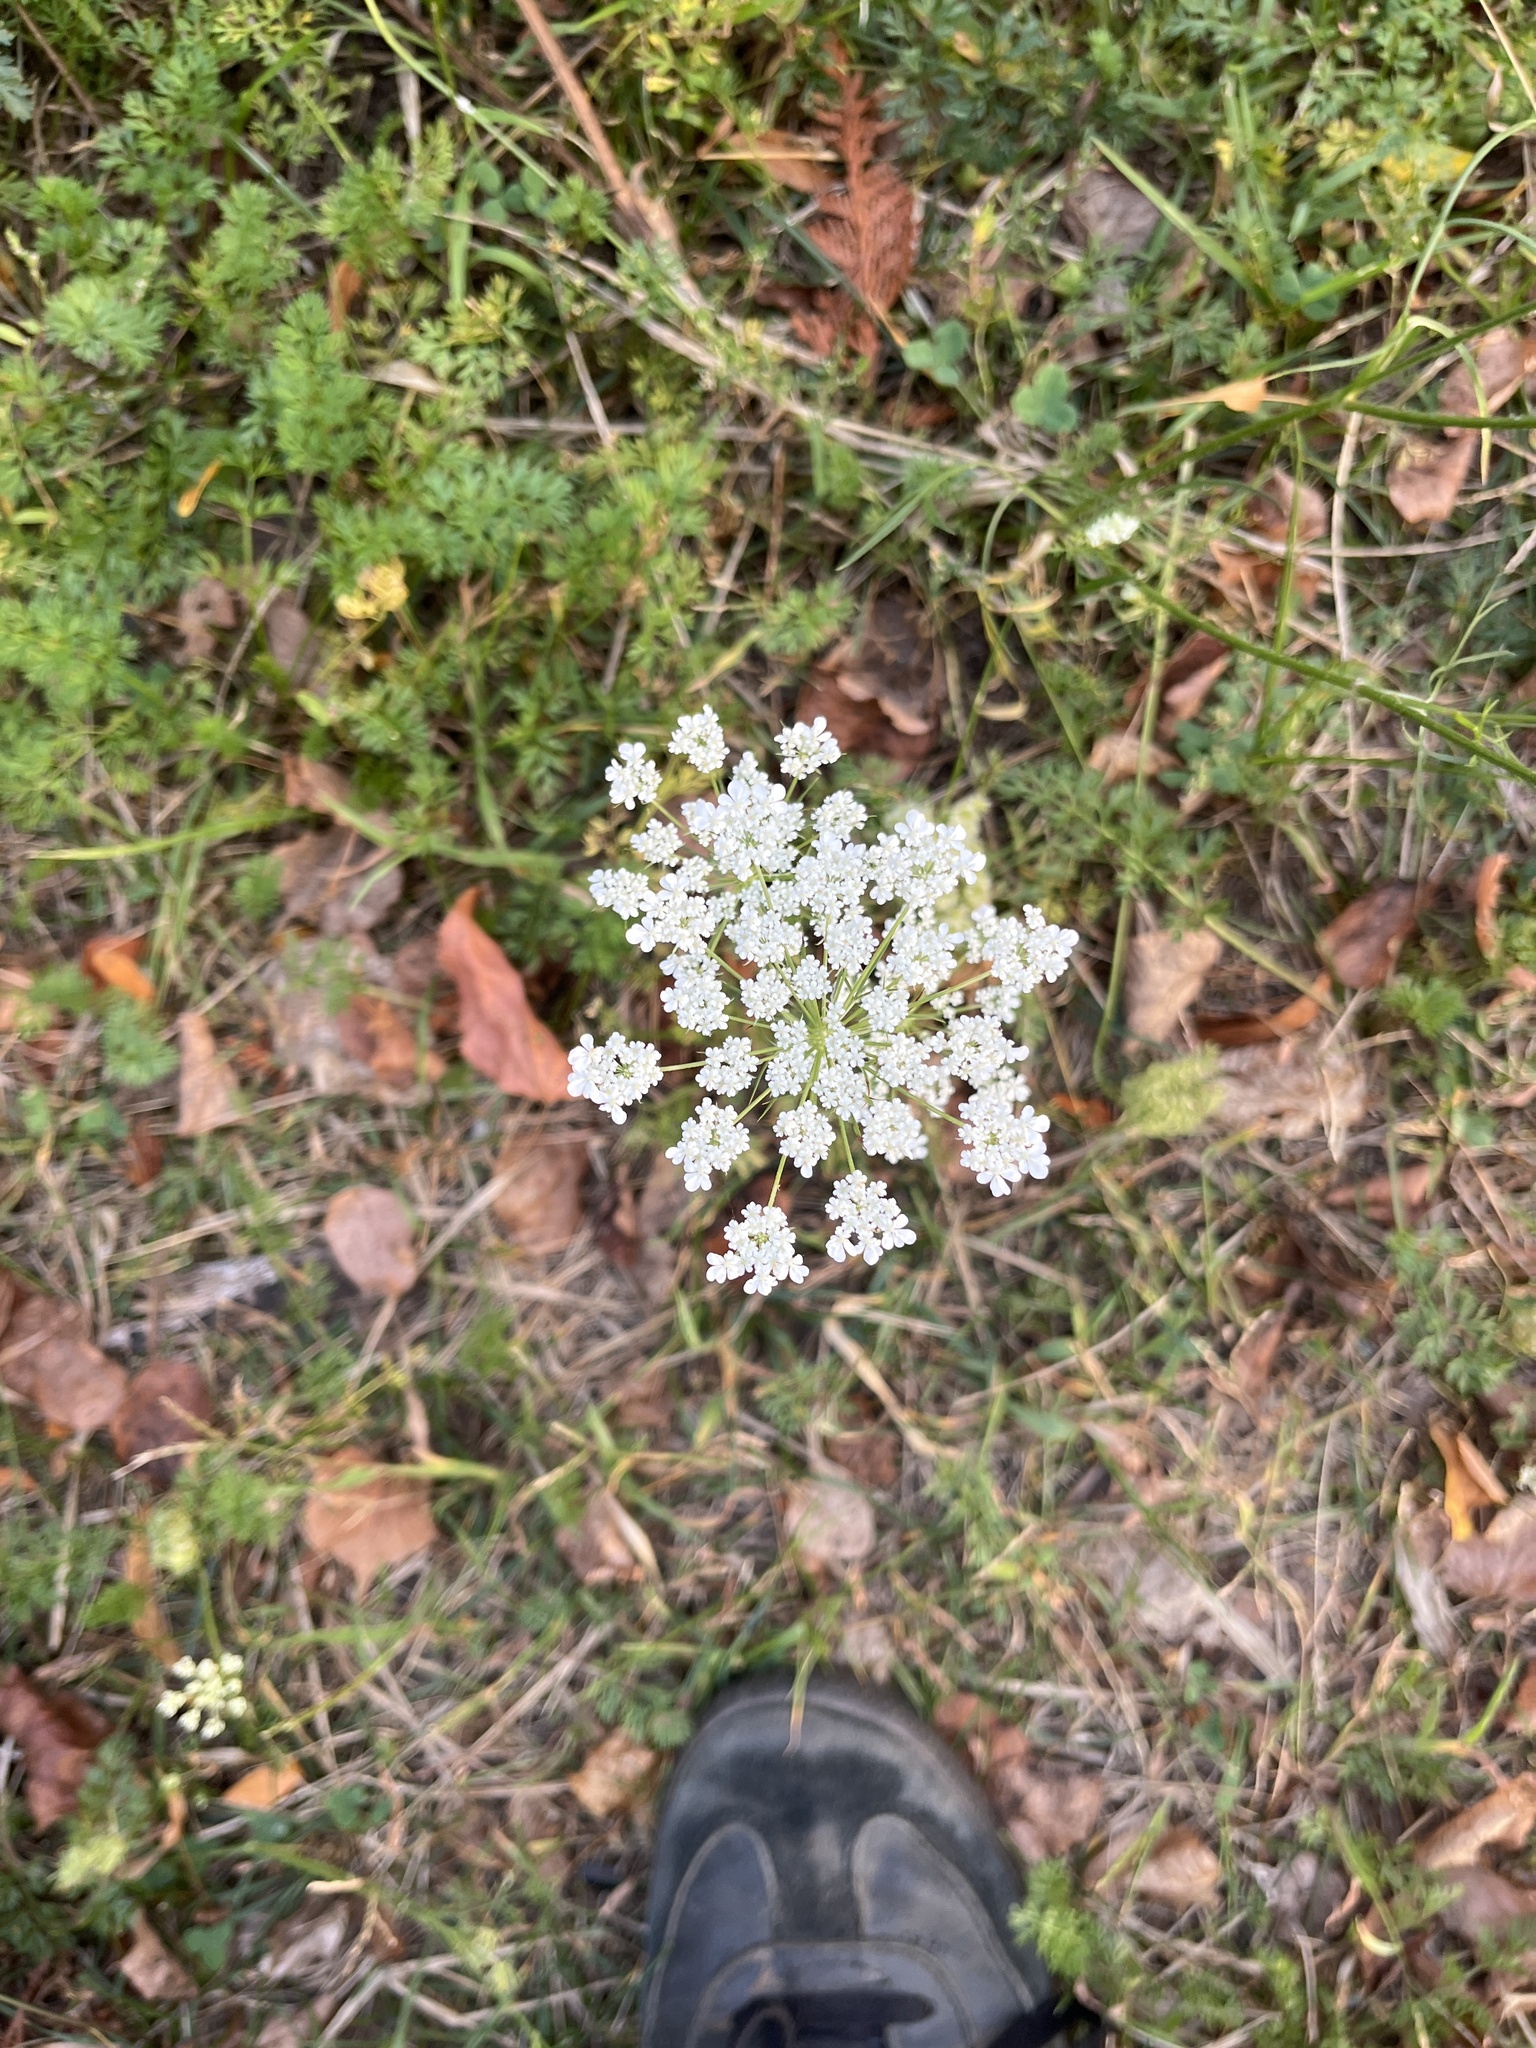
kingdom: Plantae
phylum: Tracheophyta
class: Magnoliopsida
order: Apiales
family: Apiaceae
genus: Daucus
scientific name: Daucus carota
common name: Wild carrot
